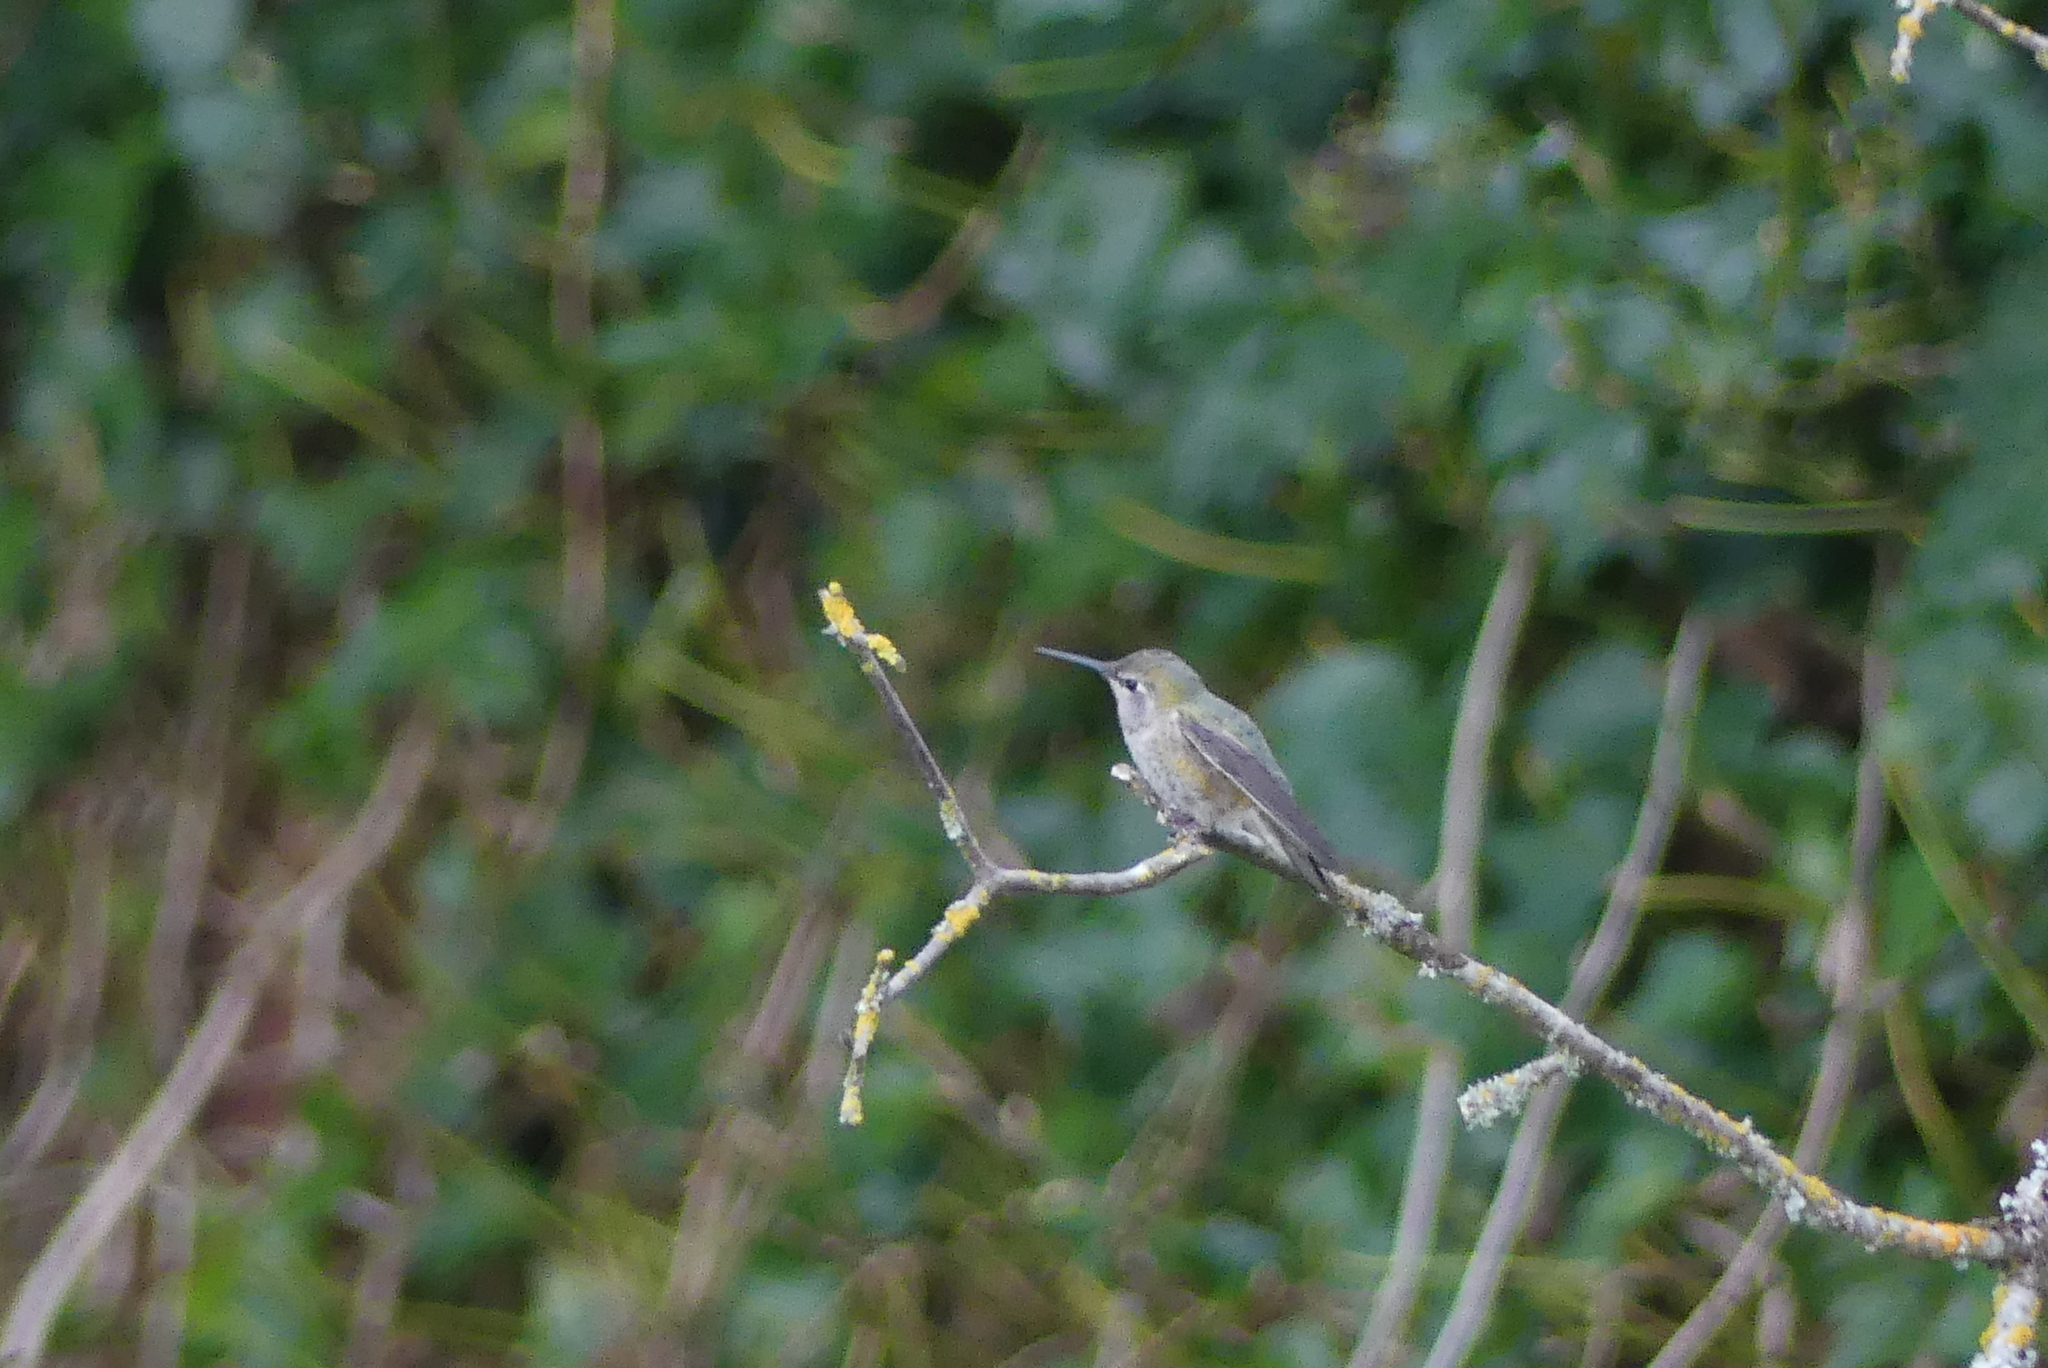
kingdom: Animalia
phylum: Chordata
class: Aves
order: Apodiformes
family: Trochilidae
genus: Calypte
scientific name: Calypte anna
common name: Anna's hummingbird
